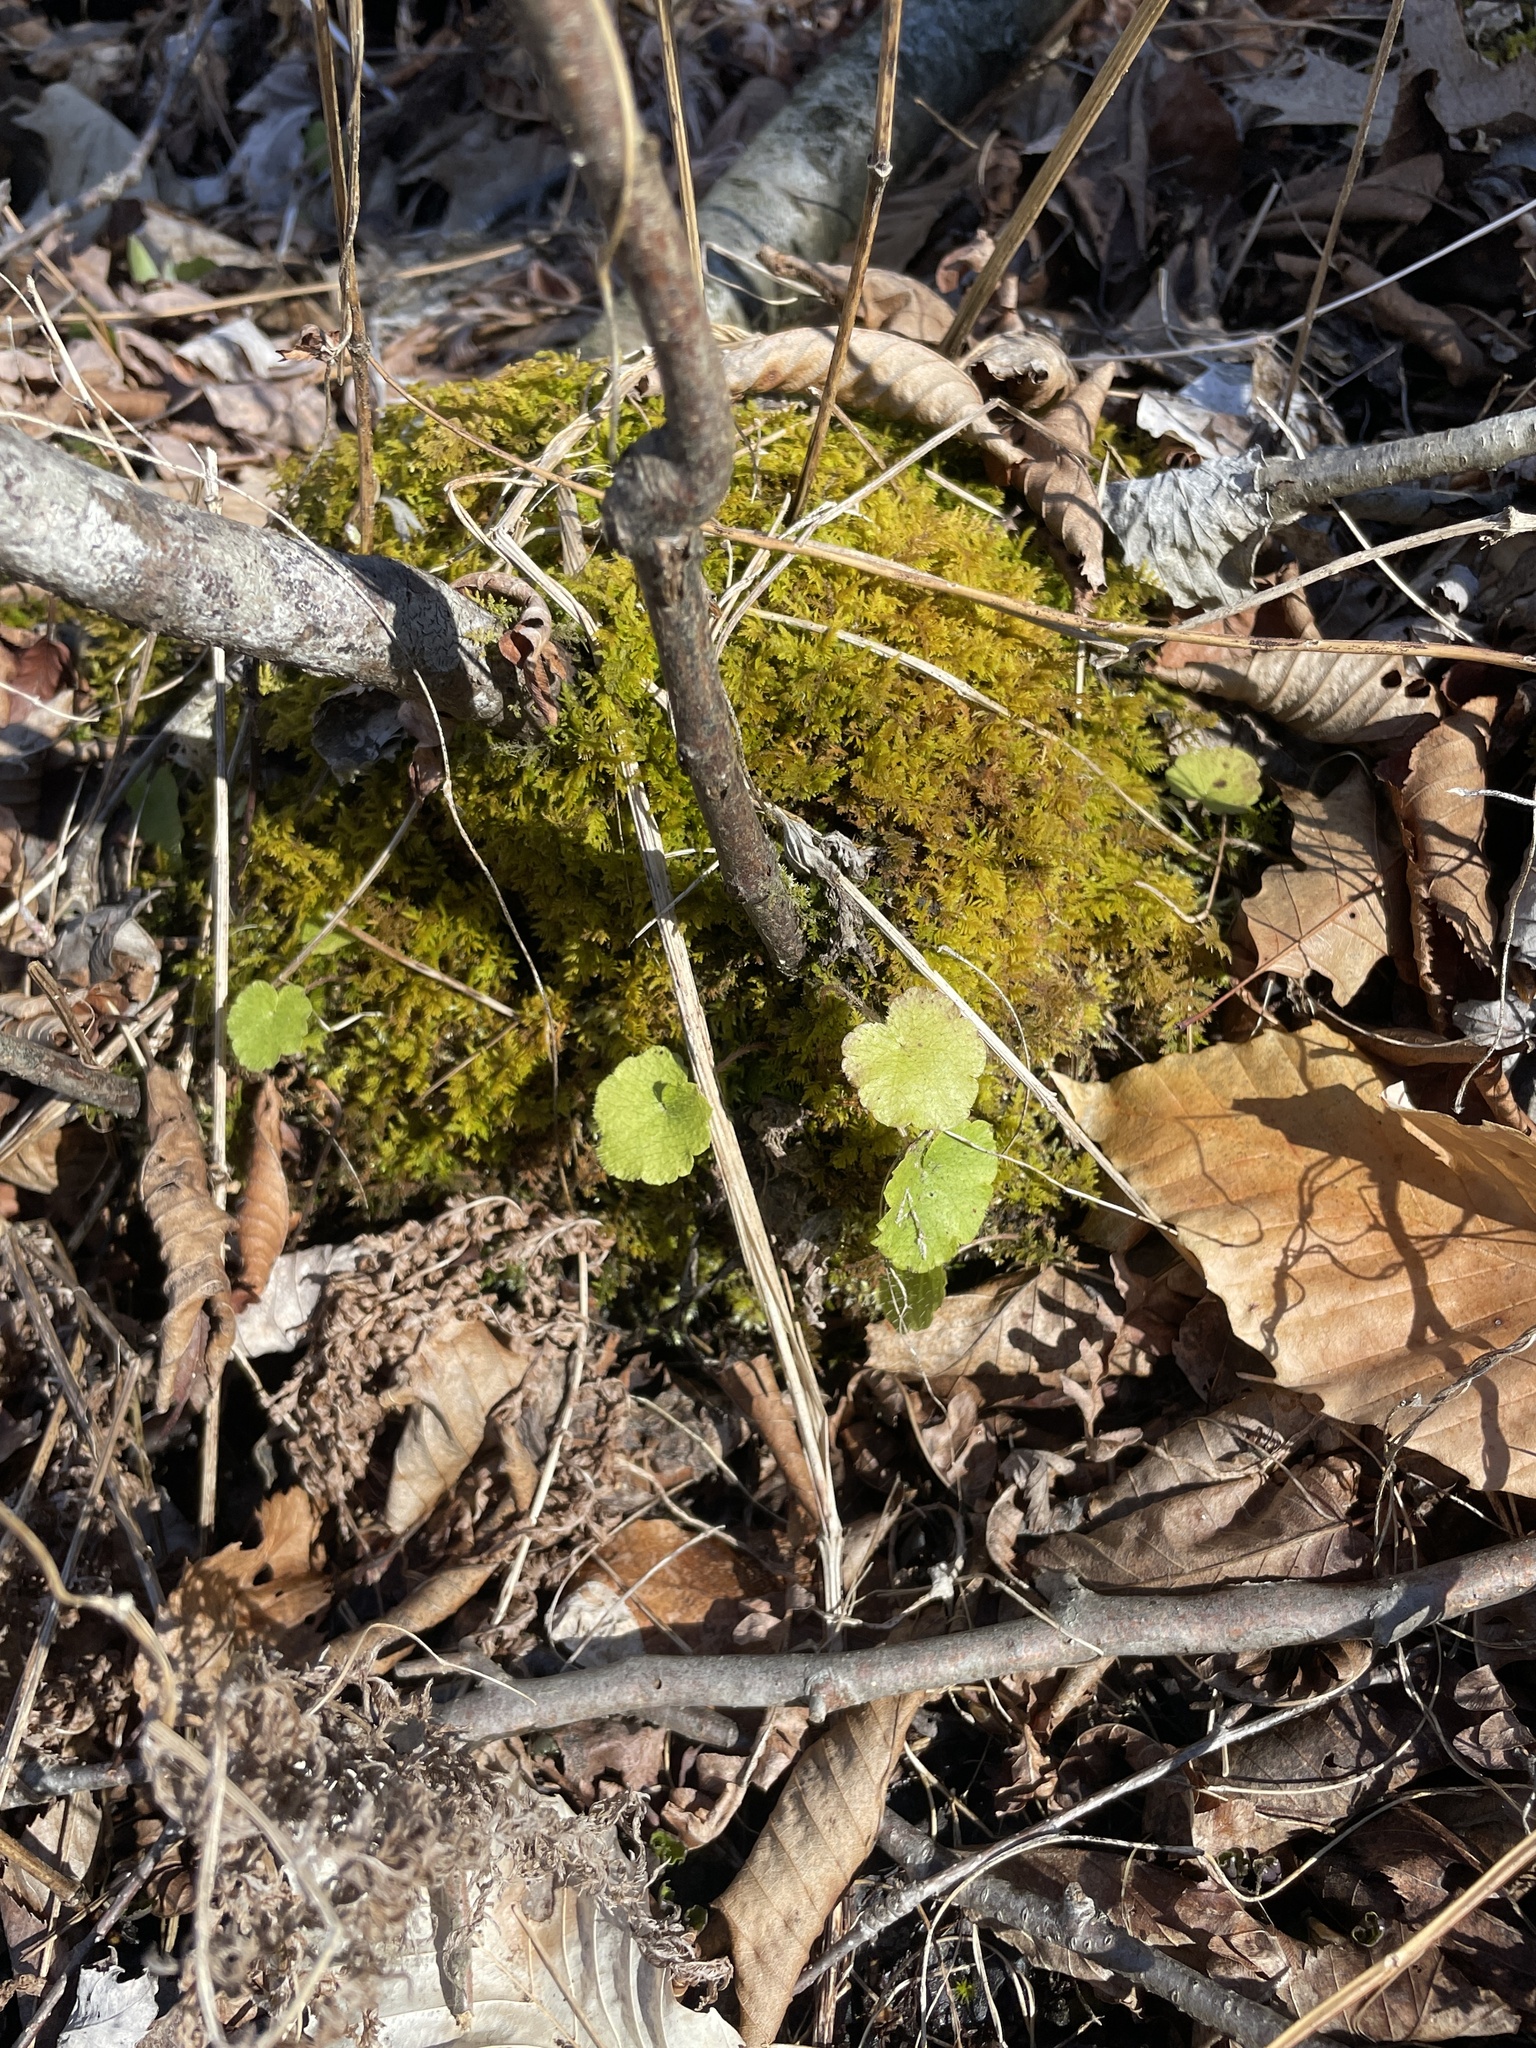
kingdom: Plantae
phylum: Tracheophyta
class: Magnoliopsida
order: Saxifragales
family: Saxifragaceae
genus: Mitella
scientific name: Mitella nuda
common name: Bare-stemmed bishop's-cap
